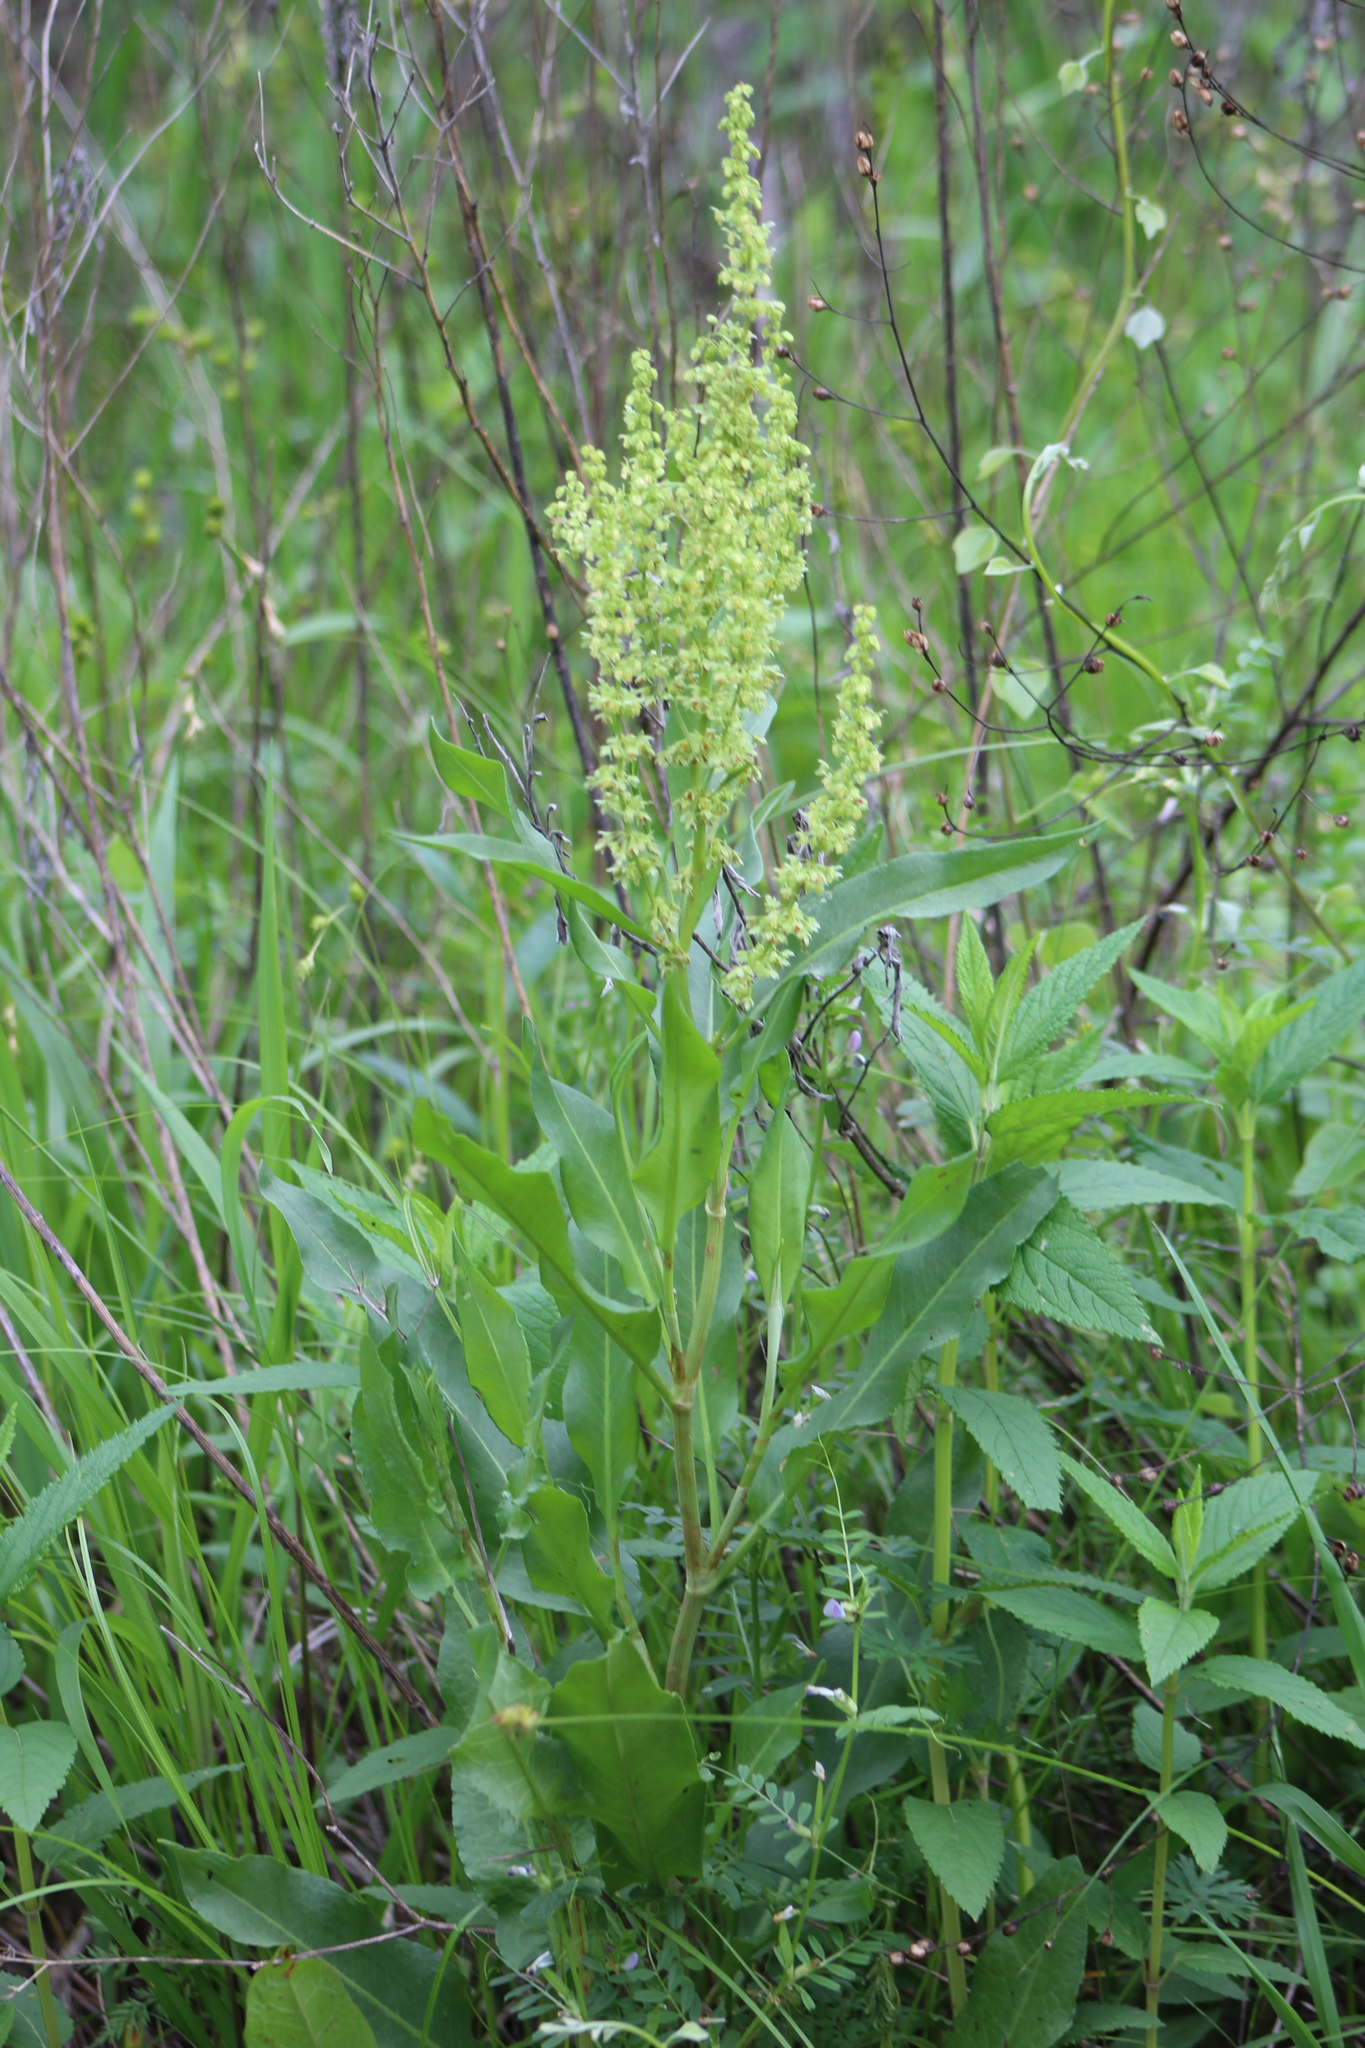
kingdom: Plantae
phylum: Tracheophyta
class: Magnoliopsida
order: Caryophyllales
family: Polygonaceae
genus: Rumex
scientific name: Rumex crispus
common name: Curled dock
